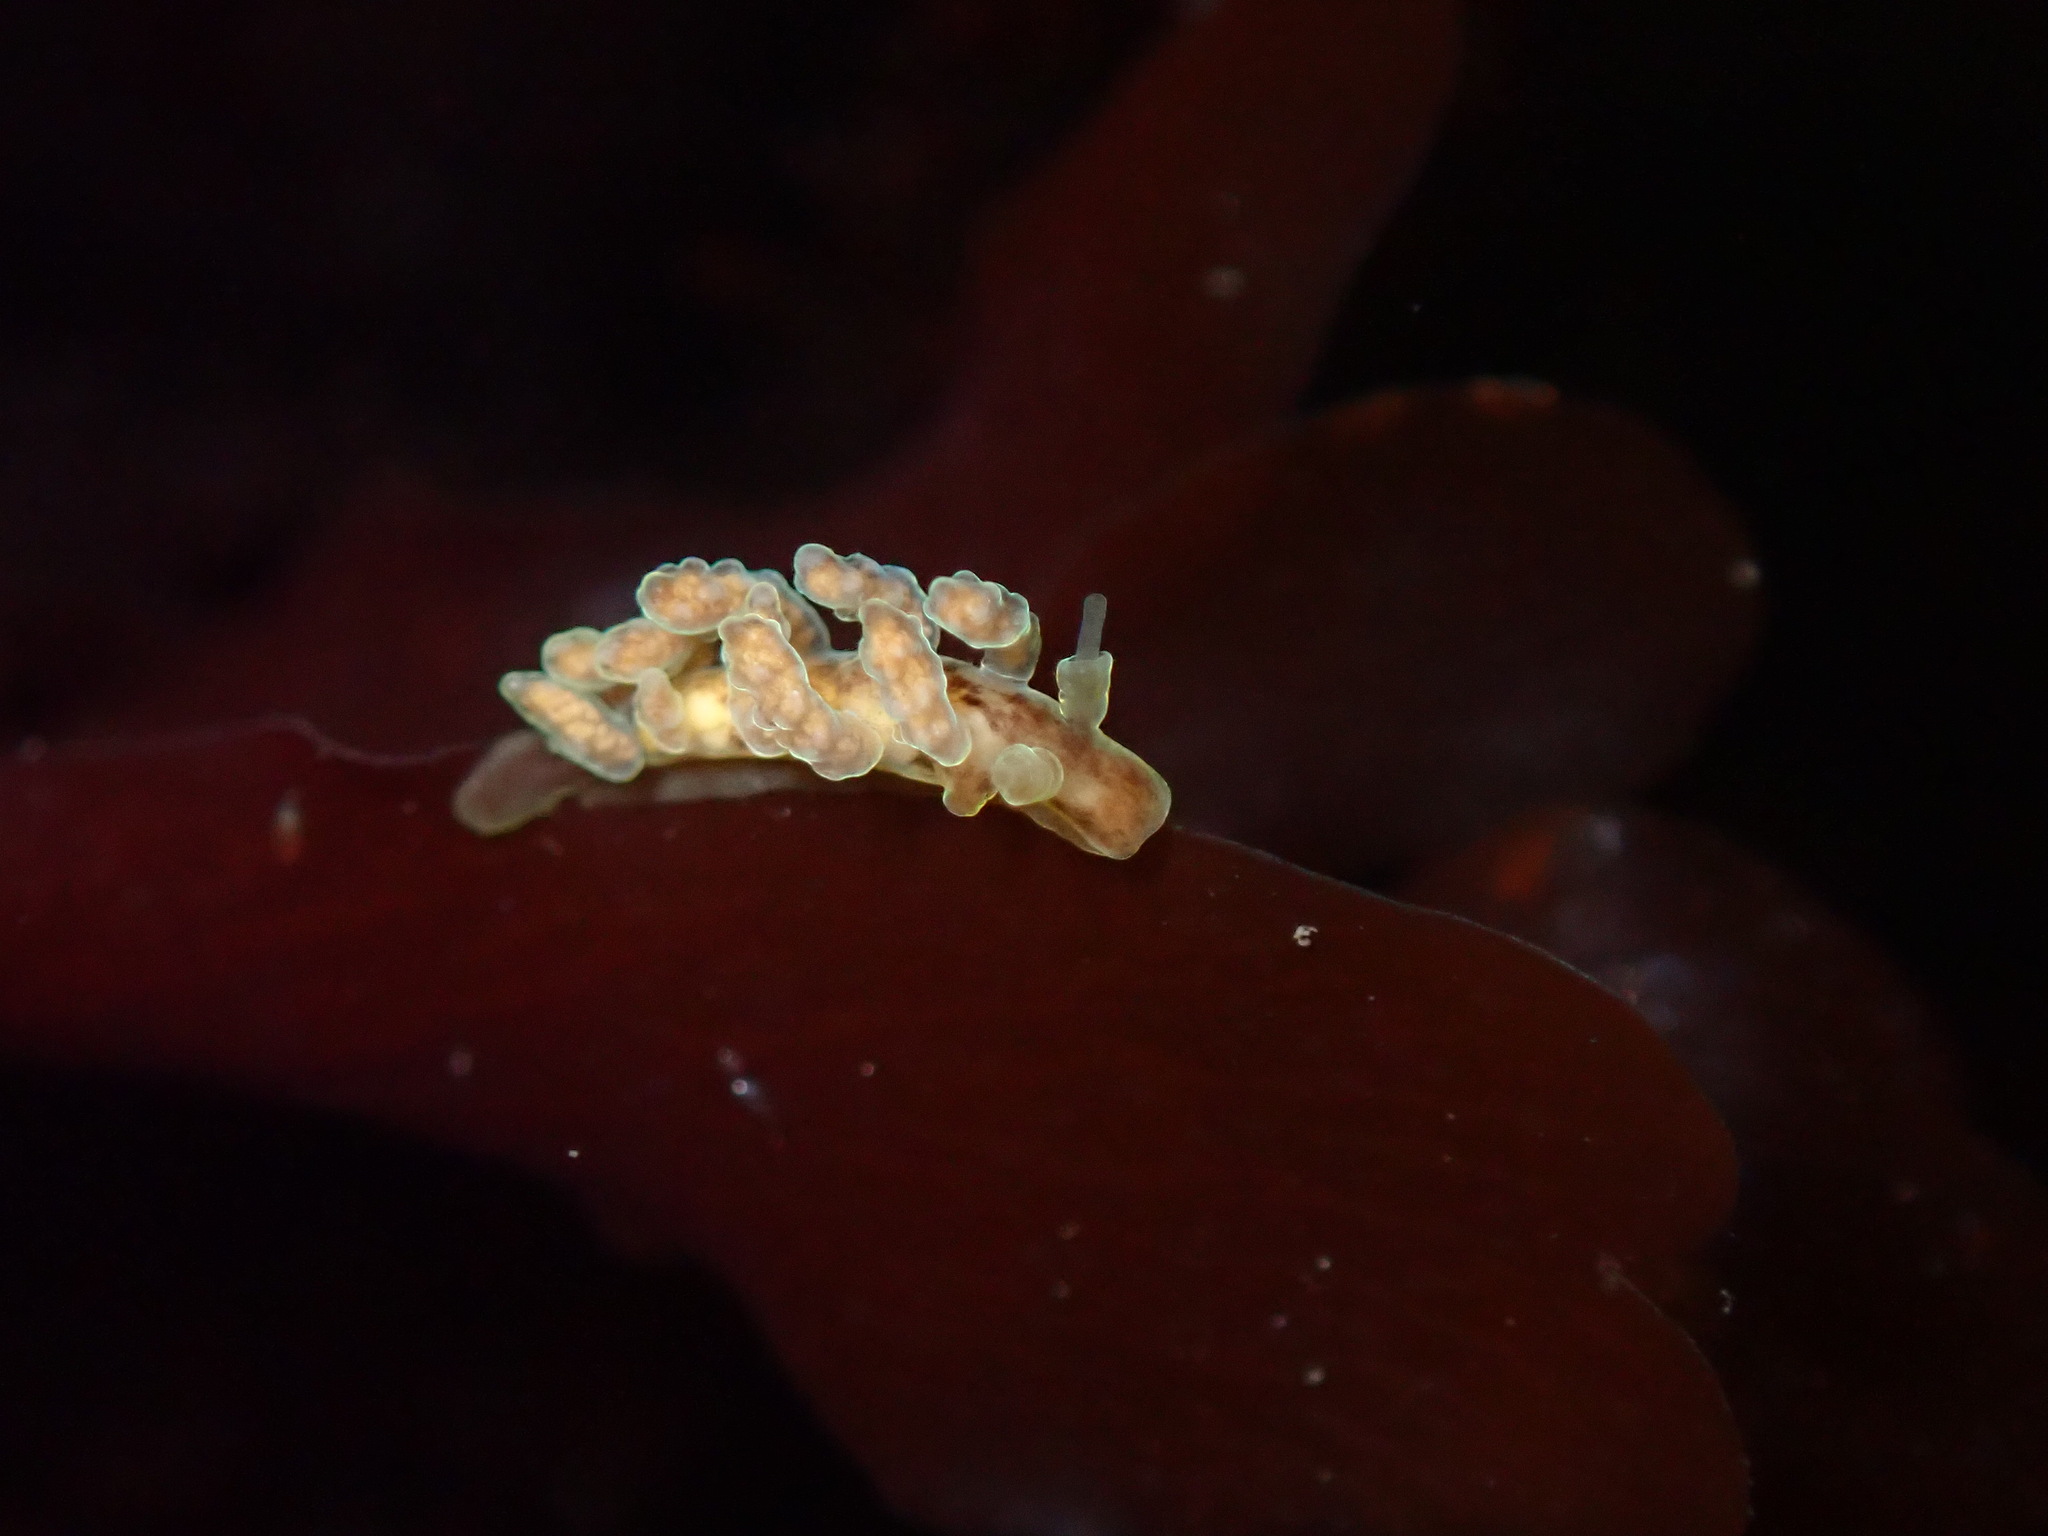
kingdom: Animalia
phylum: Mollusca
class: Gastropoda
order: Nudibranchia
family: Dotidae
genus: Doto
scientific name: Doto columbiana
